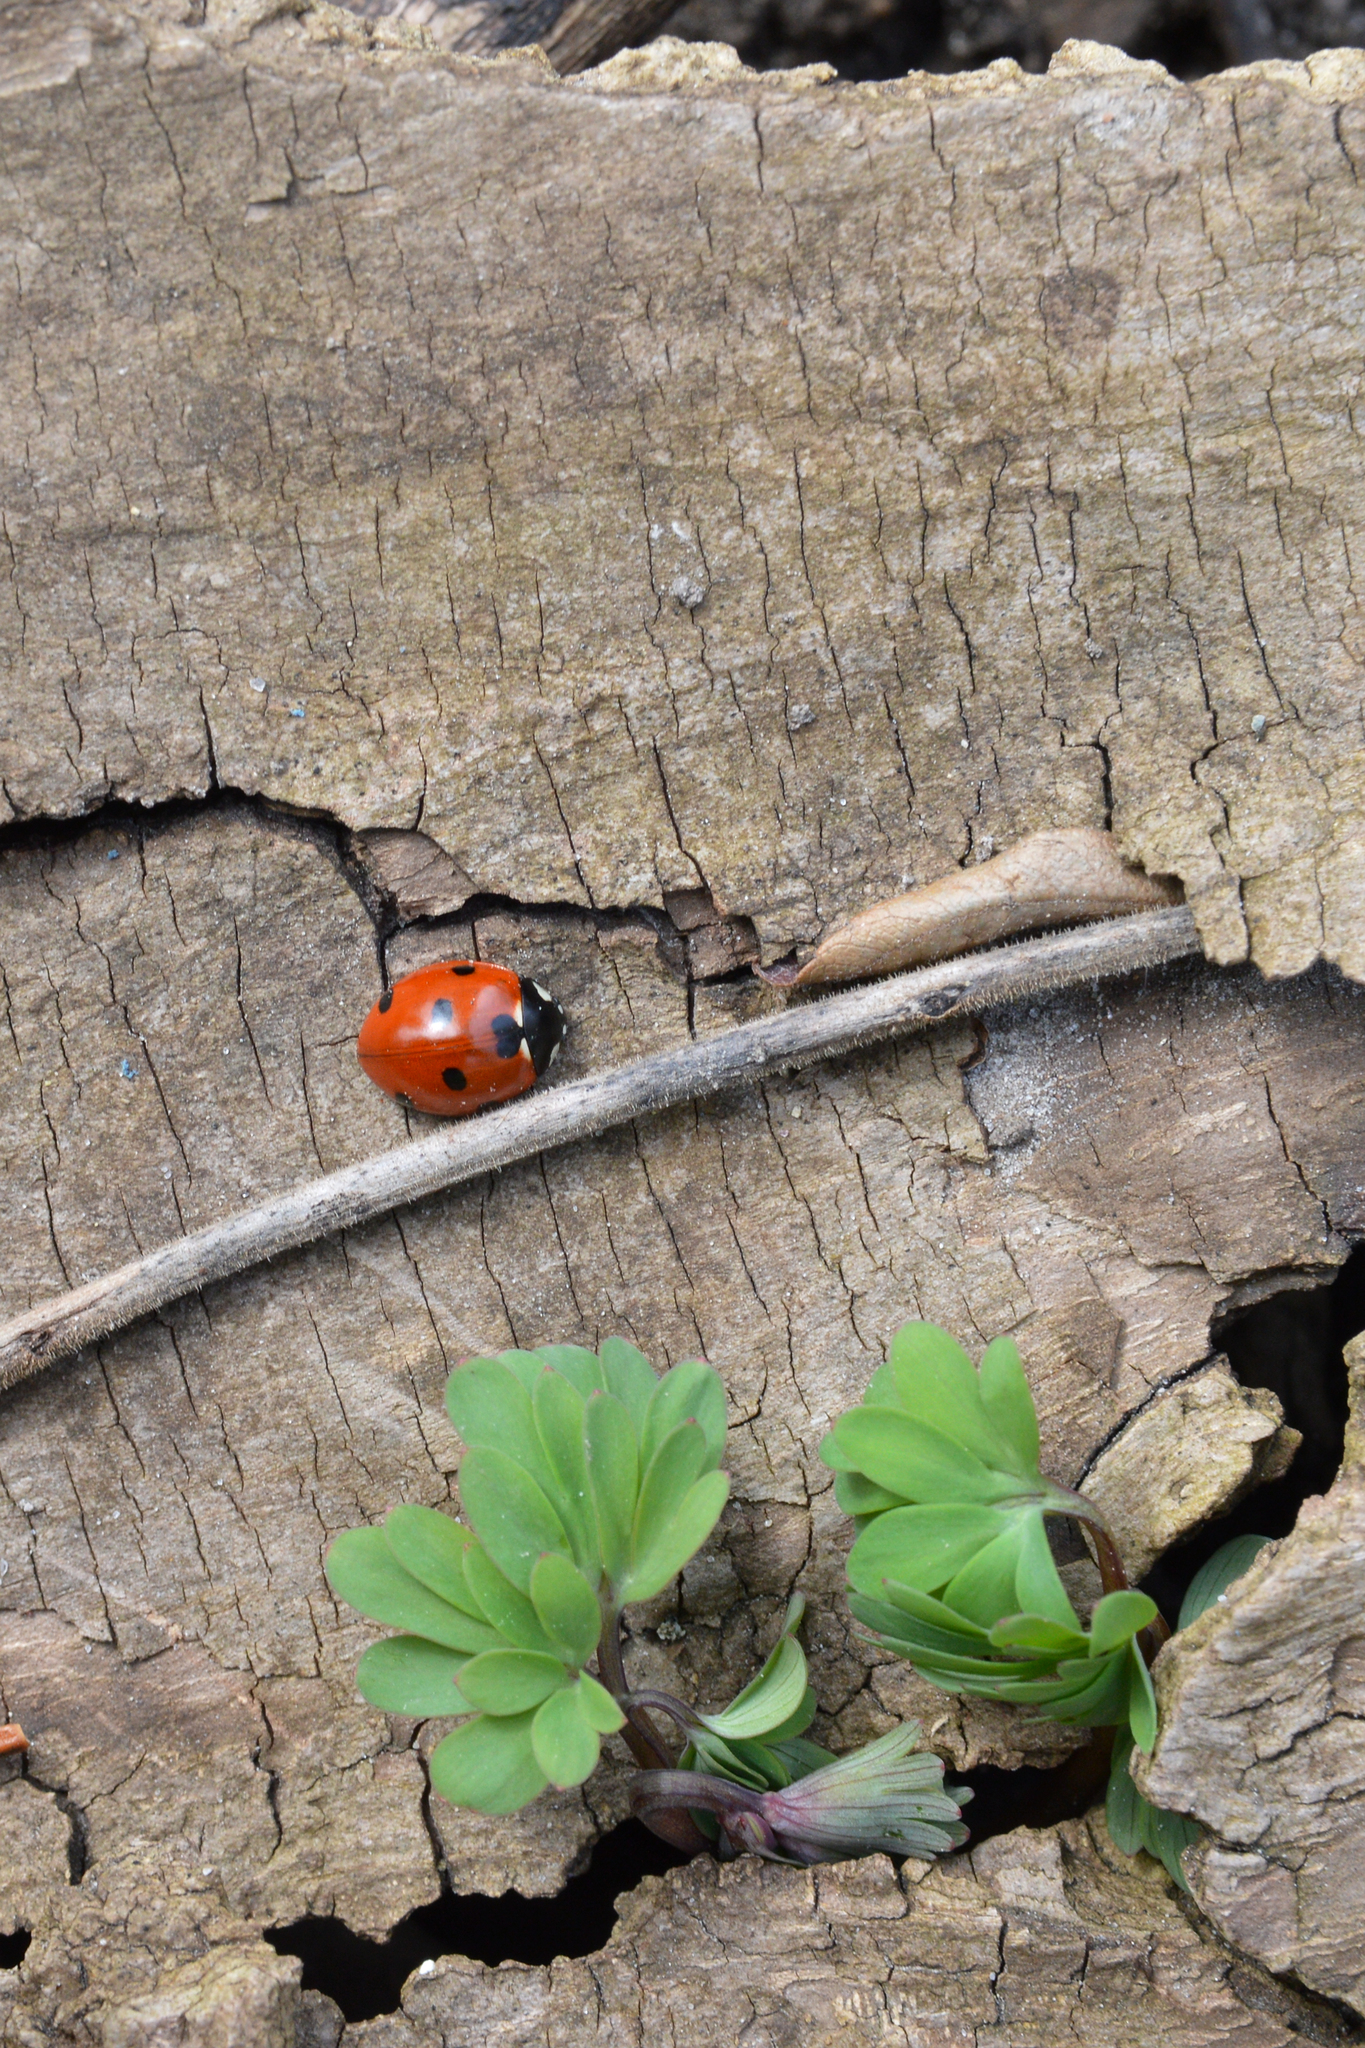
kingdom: Animalia
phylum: Arthropoda
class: Insecta
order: Coleoptera
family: Coccinellidae
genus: Coccinella
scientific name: Coccinella septempunctata
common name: Sevenspotted lady beetle
